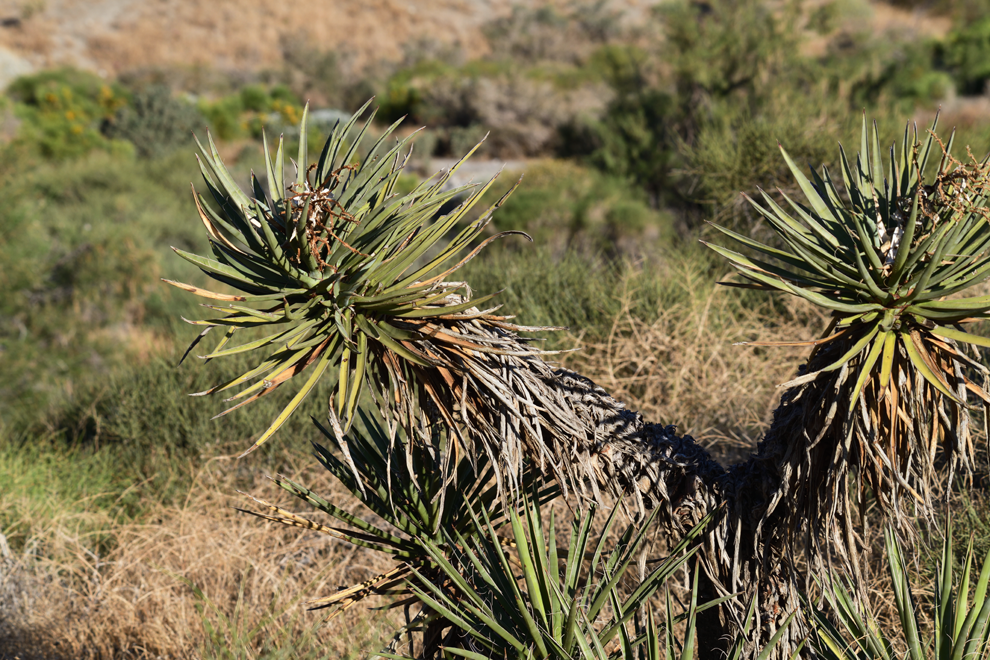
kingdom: Plantae
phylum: Tracheophyta
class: Liliopsida
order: Asparagales
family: Asparagaceae
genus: Yucca
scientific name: Yucca schidigera
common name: Mojave yucca
